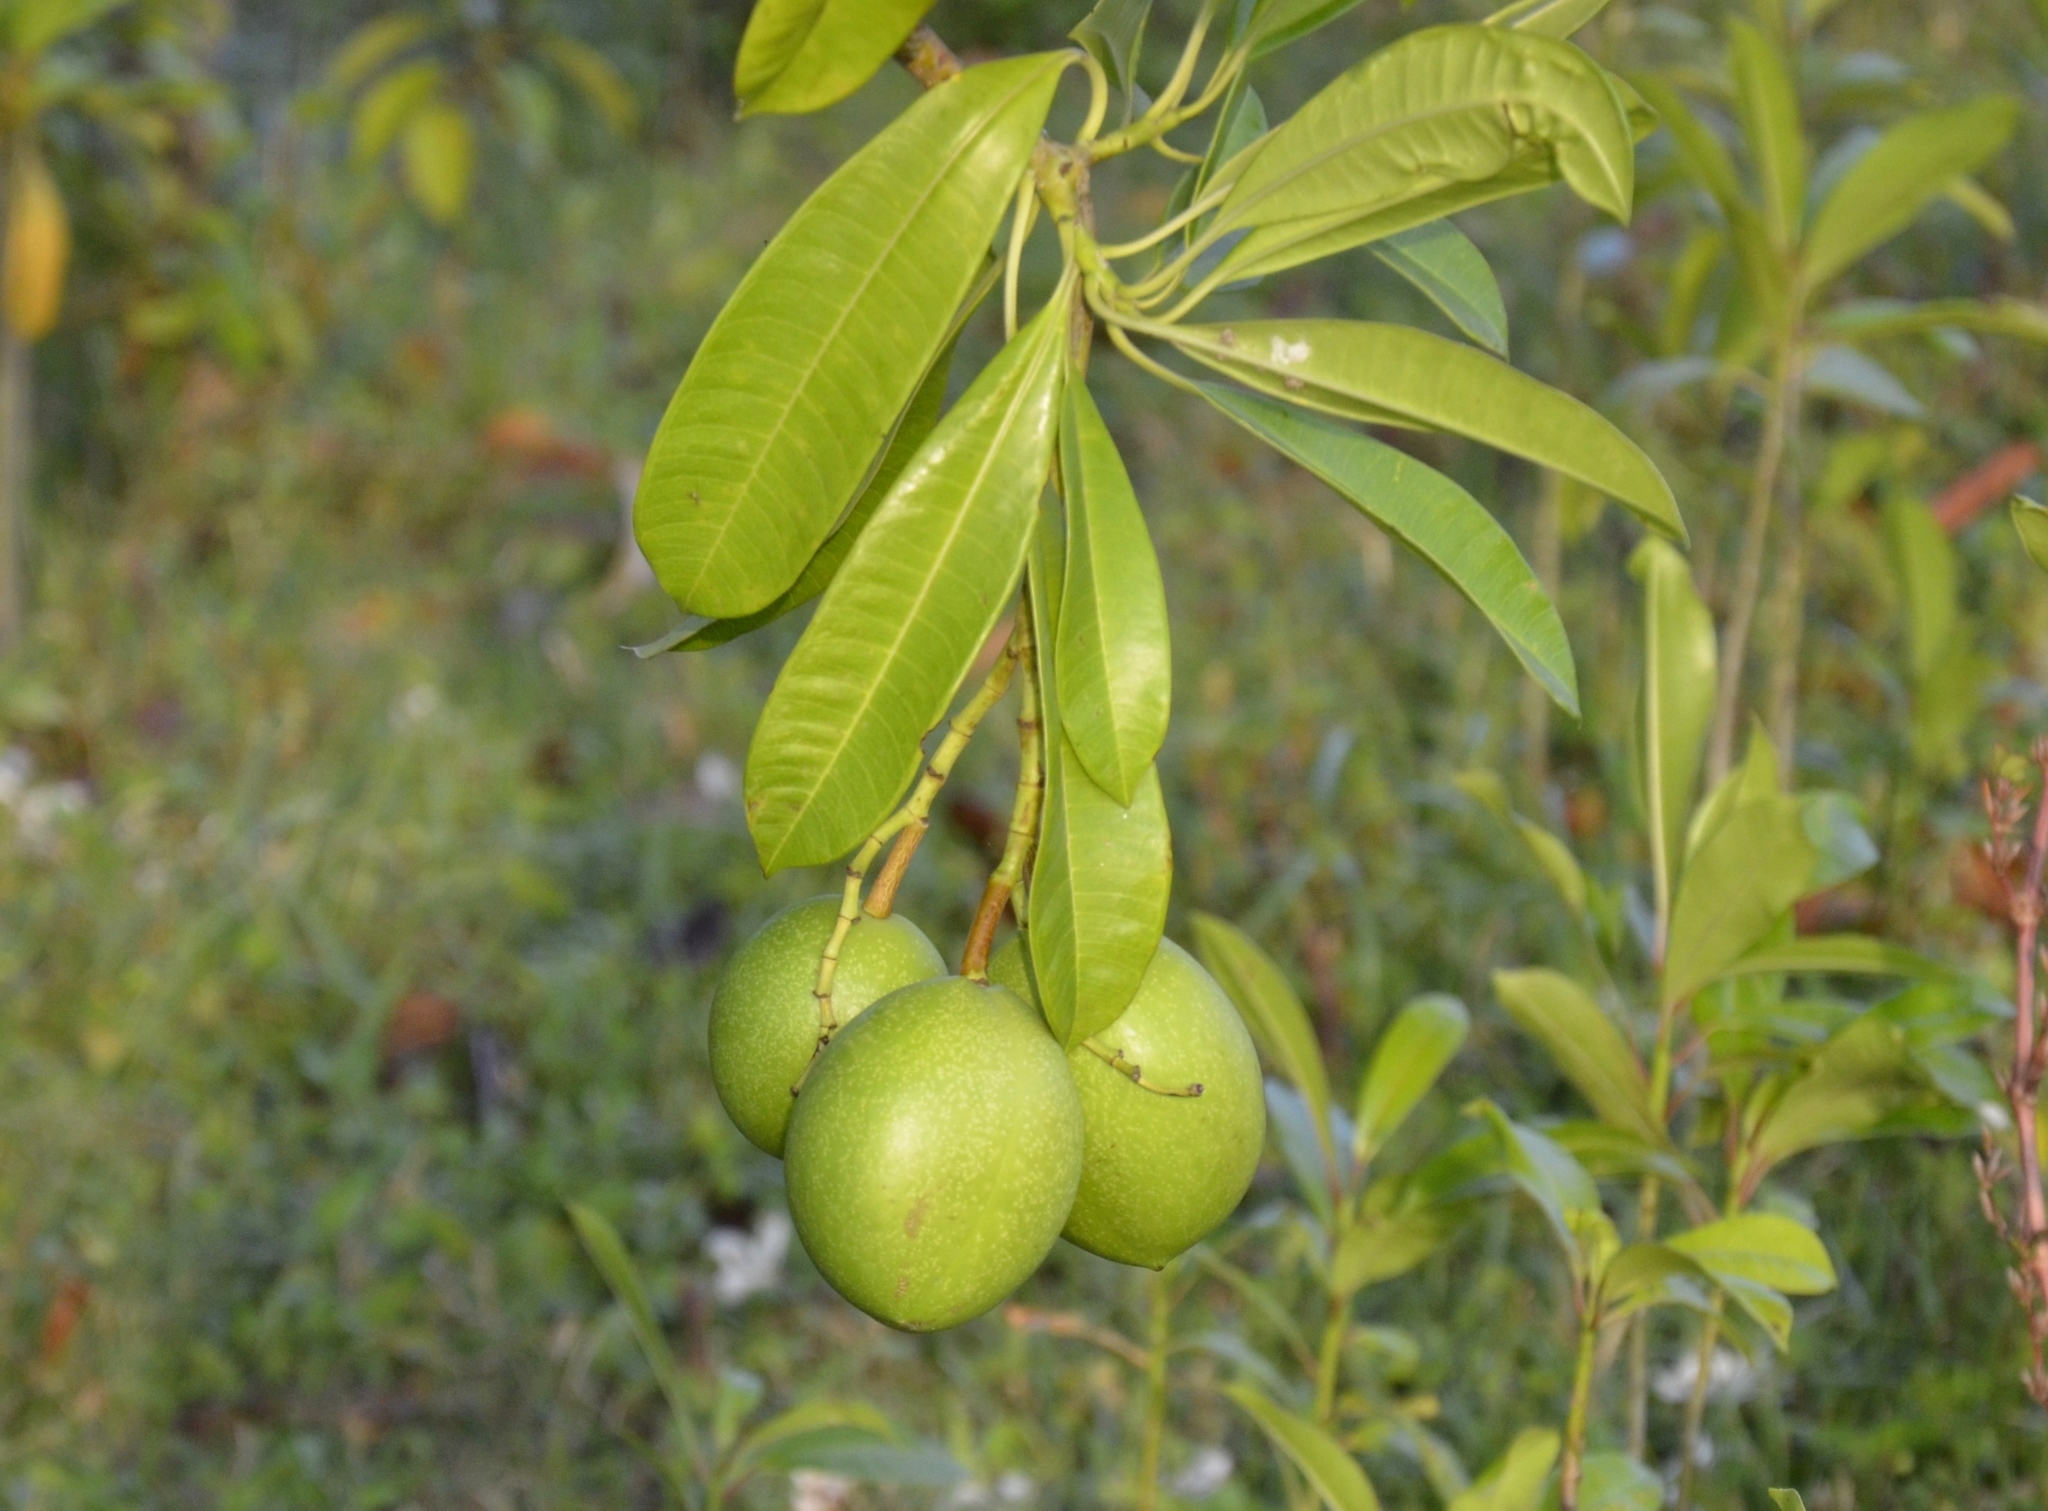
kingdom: Plantae
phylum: Tracheophyta
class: Magnoliopsida
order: Gentianales
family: Apocynaceae
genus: Cerbera
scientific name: Cerbera odollam
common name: Pong-pong
